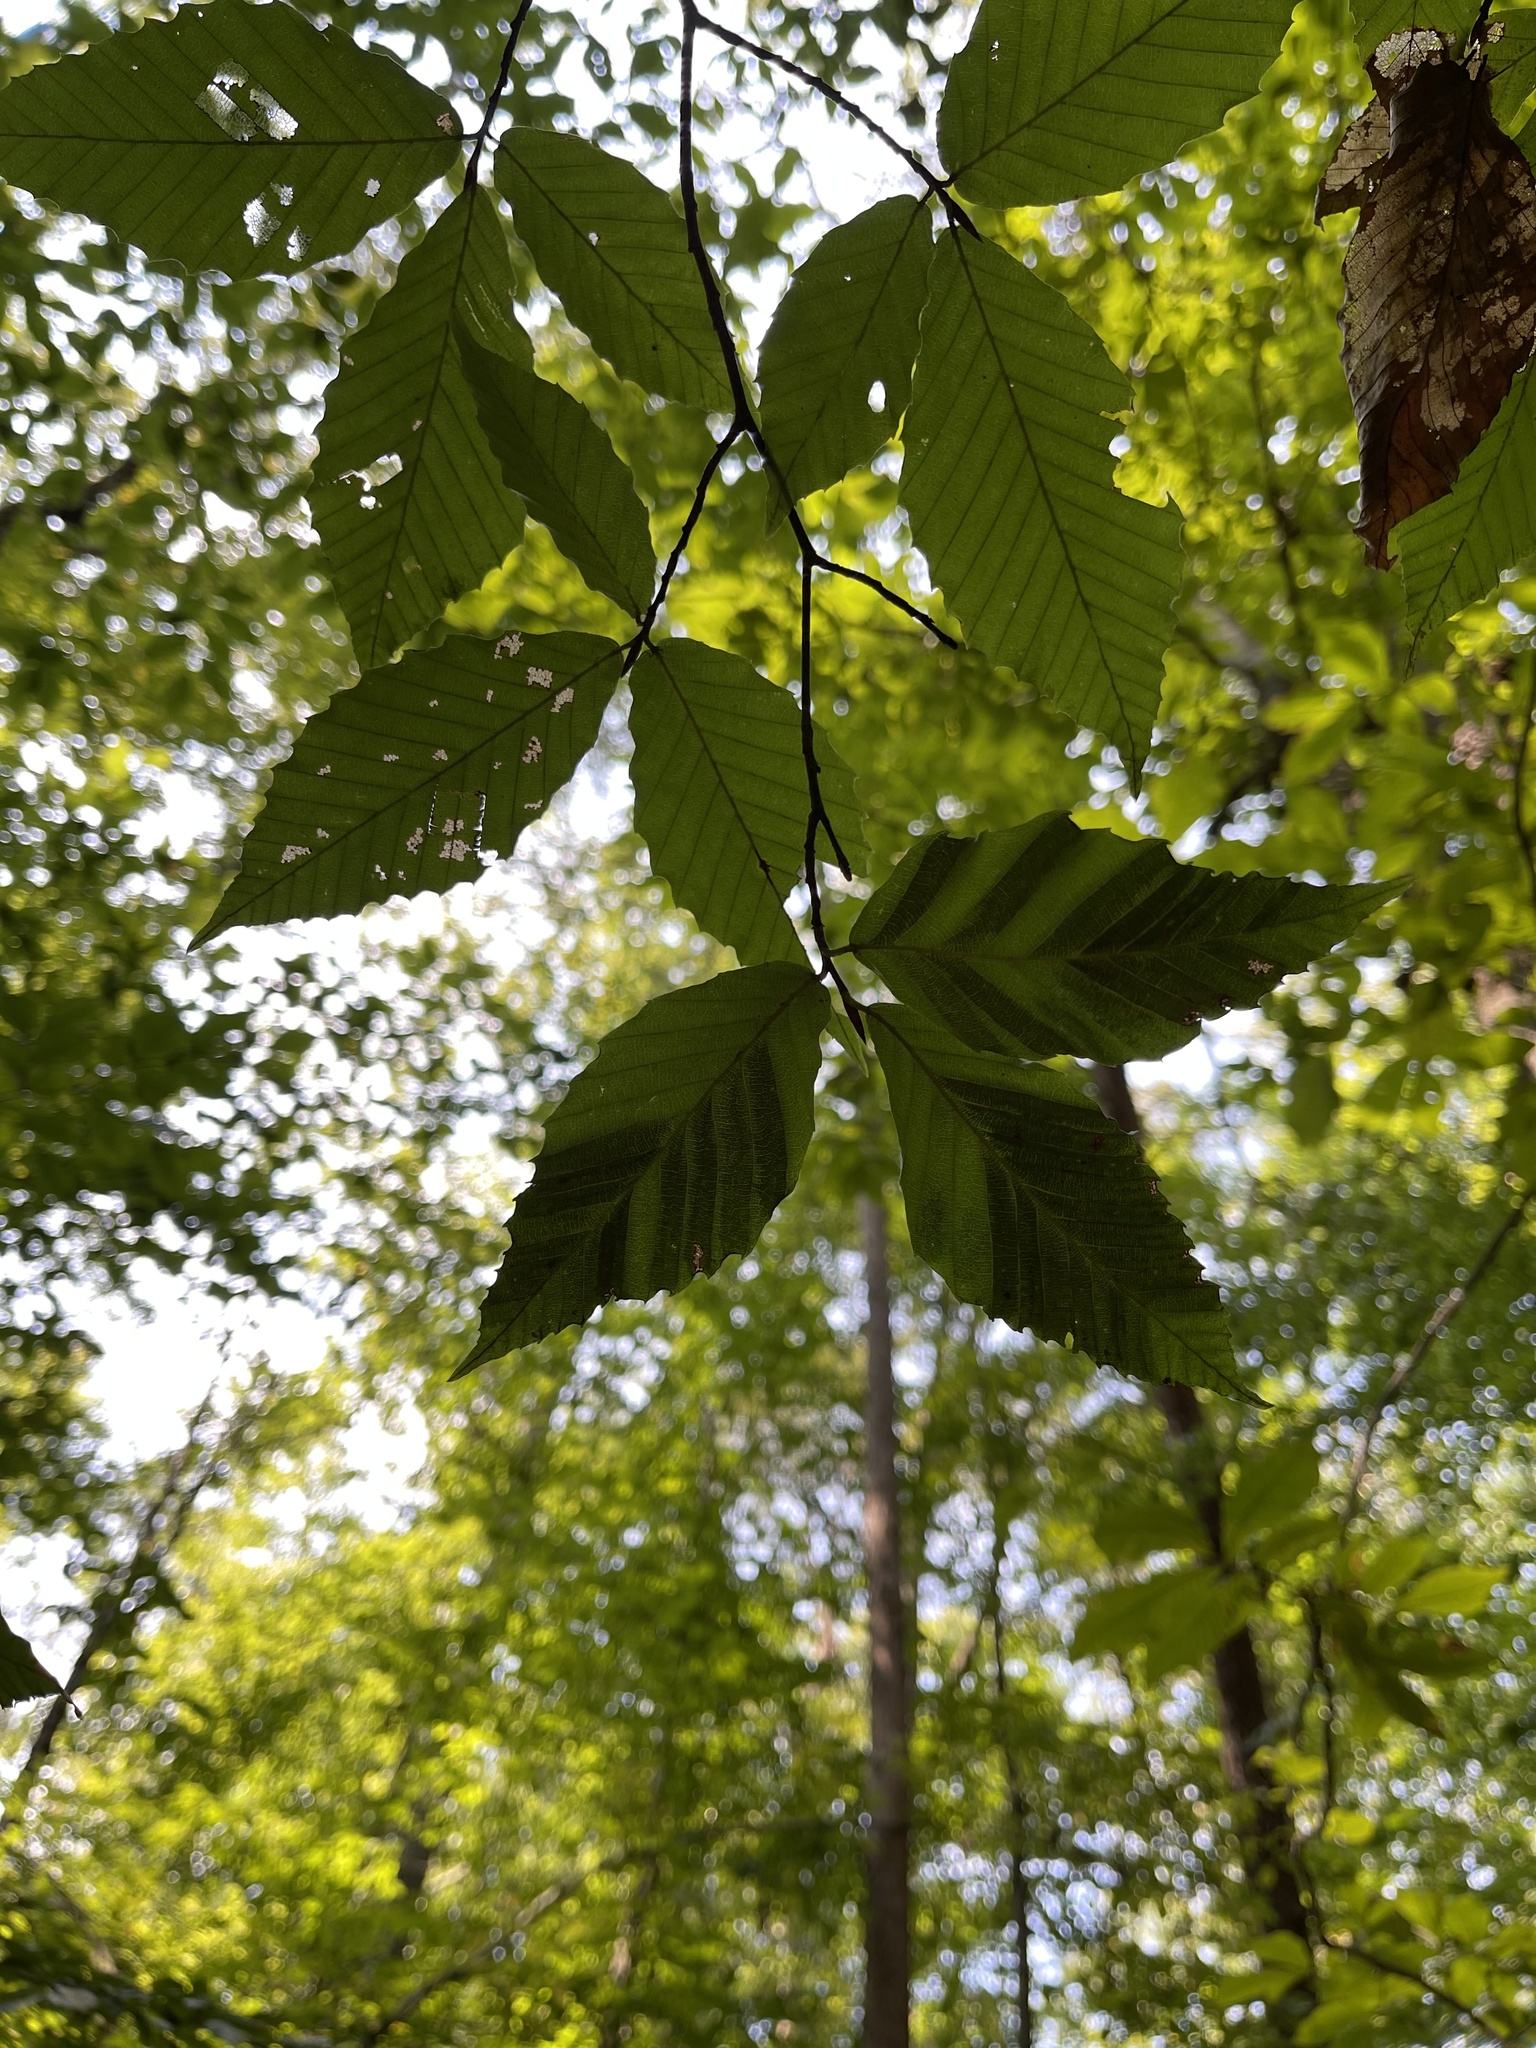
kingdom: Animalia
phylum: Nematoda
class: Chromadorea
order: Rhabditida
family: Anguinidae
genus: Litylenchus
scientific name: Litylenchus crenatae
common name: Beech leaf disease
